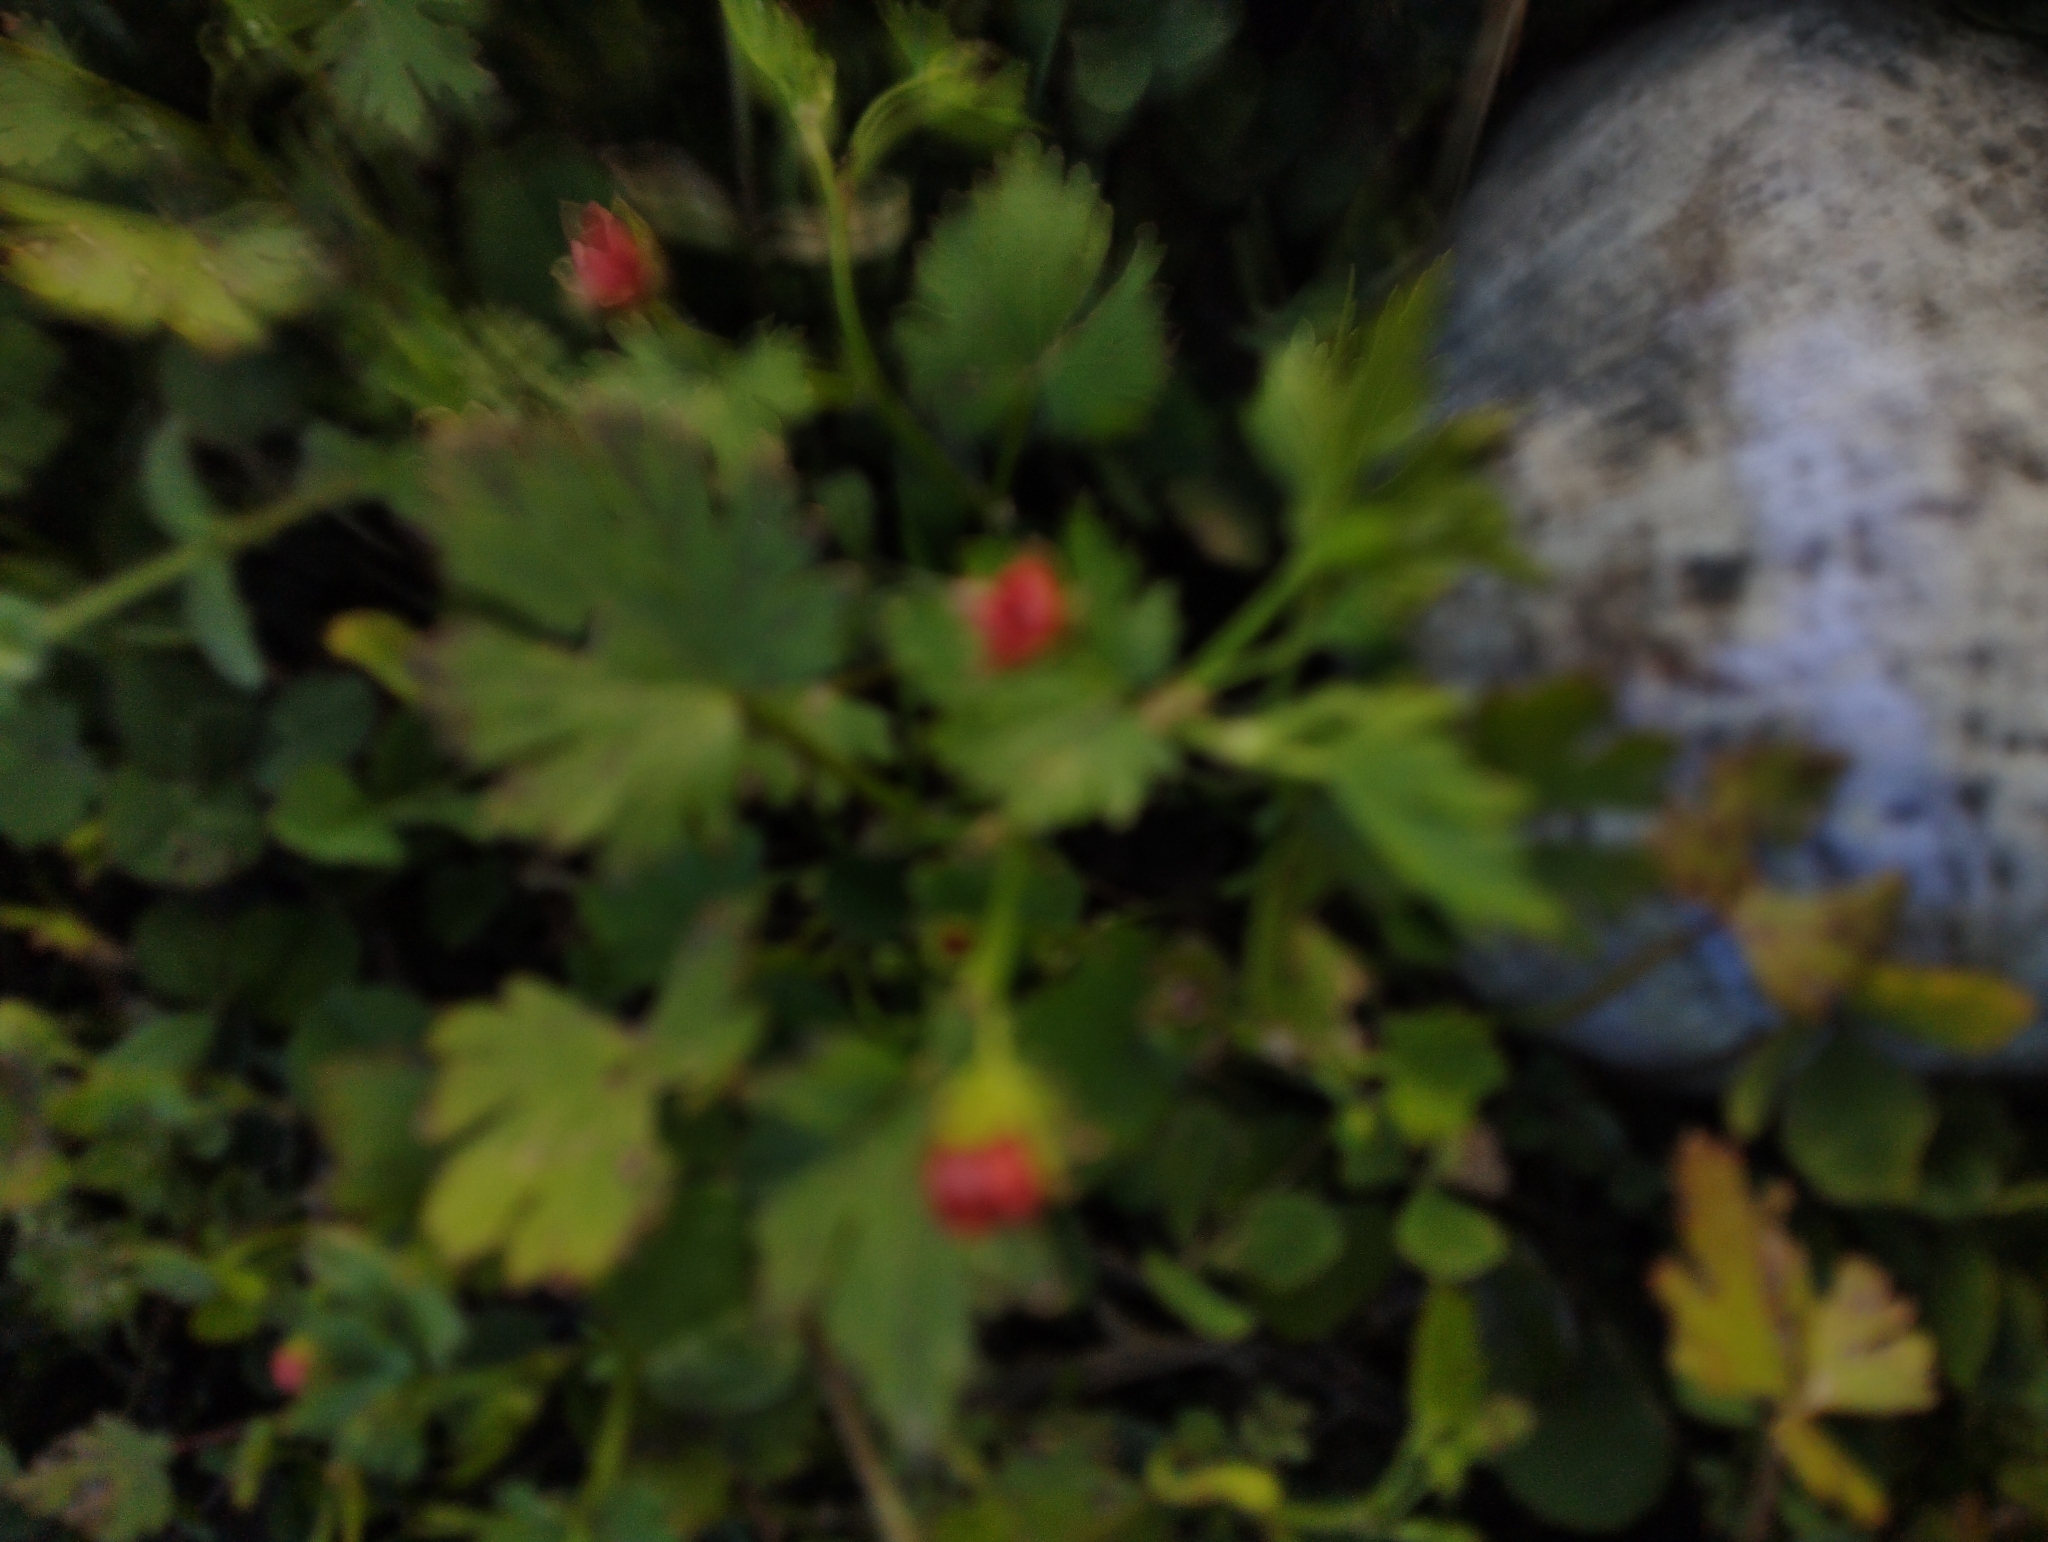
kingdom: Plantae
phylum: Tracheophyta
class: Magnoliopsida
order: Malvales
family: Malvaceae
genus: Modiola
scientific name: Modiola caroliniana
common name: Carolina bristlemallow
